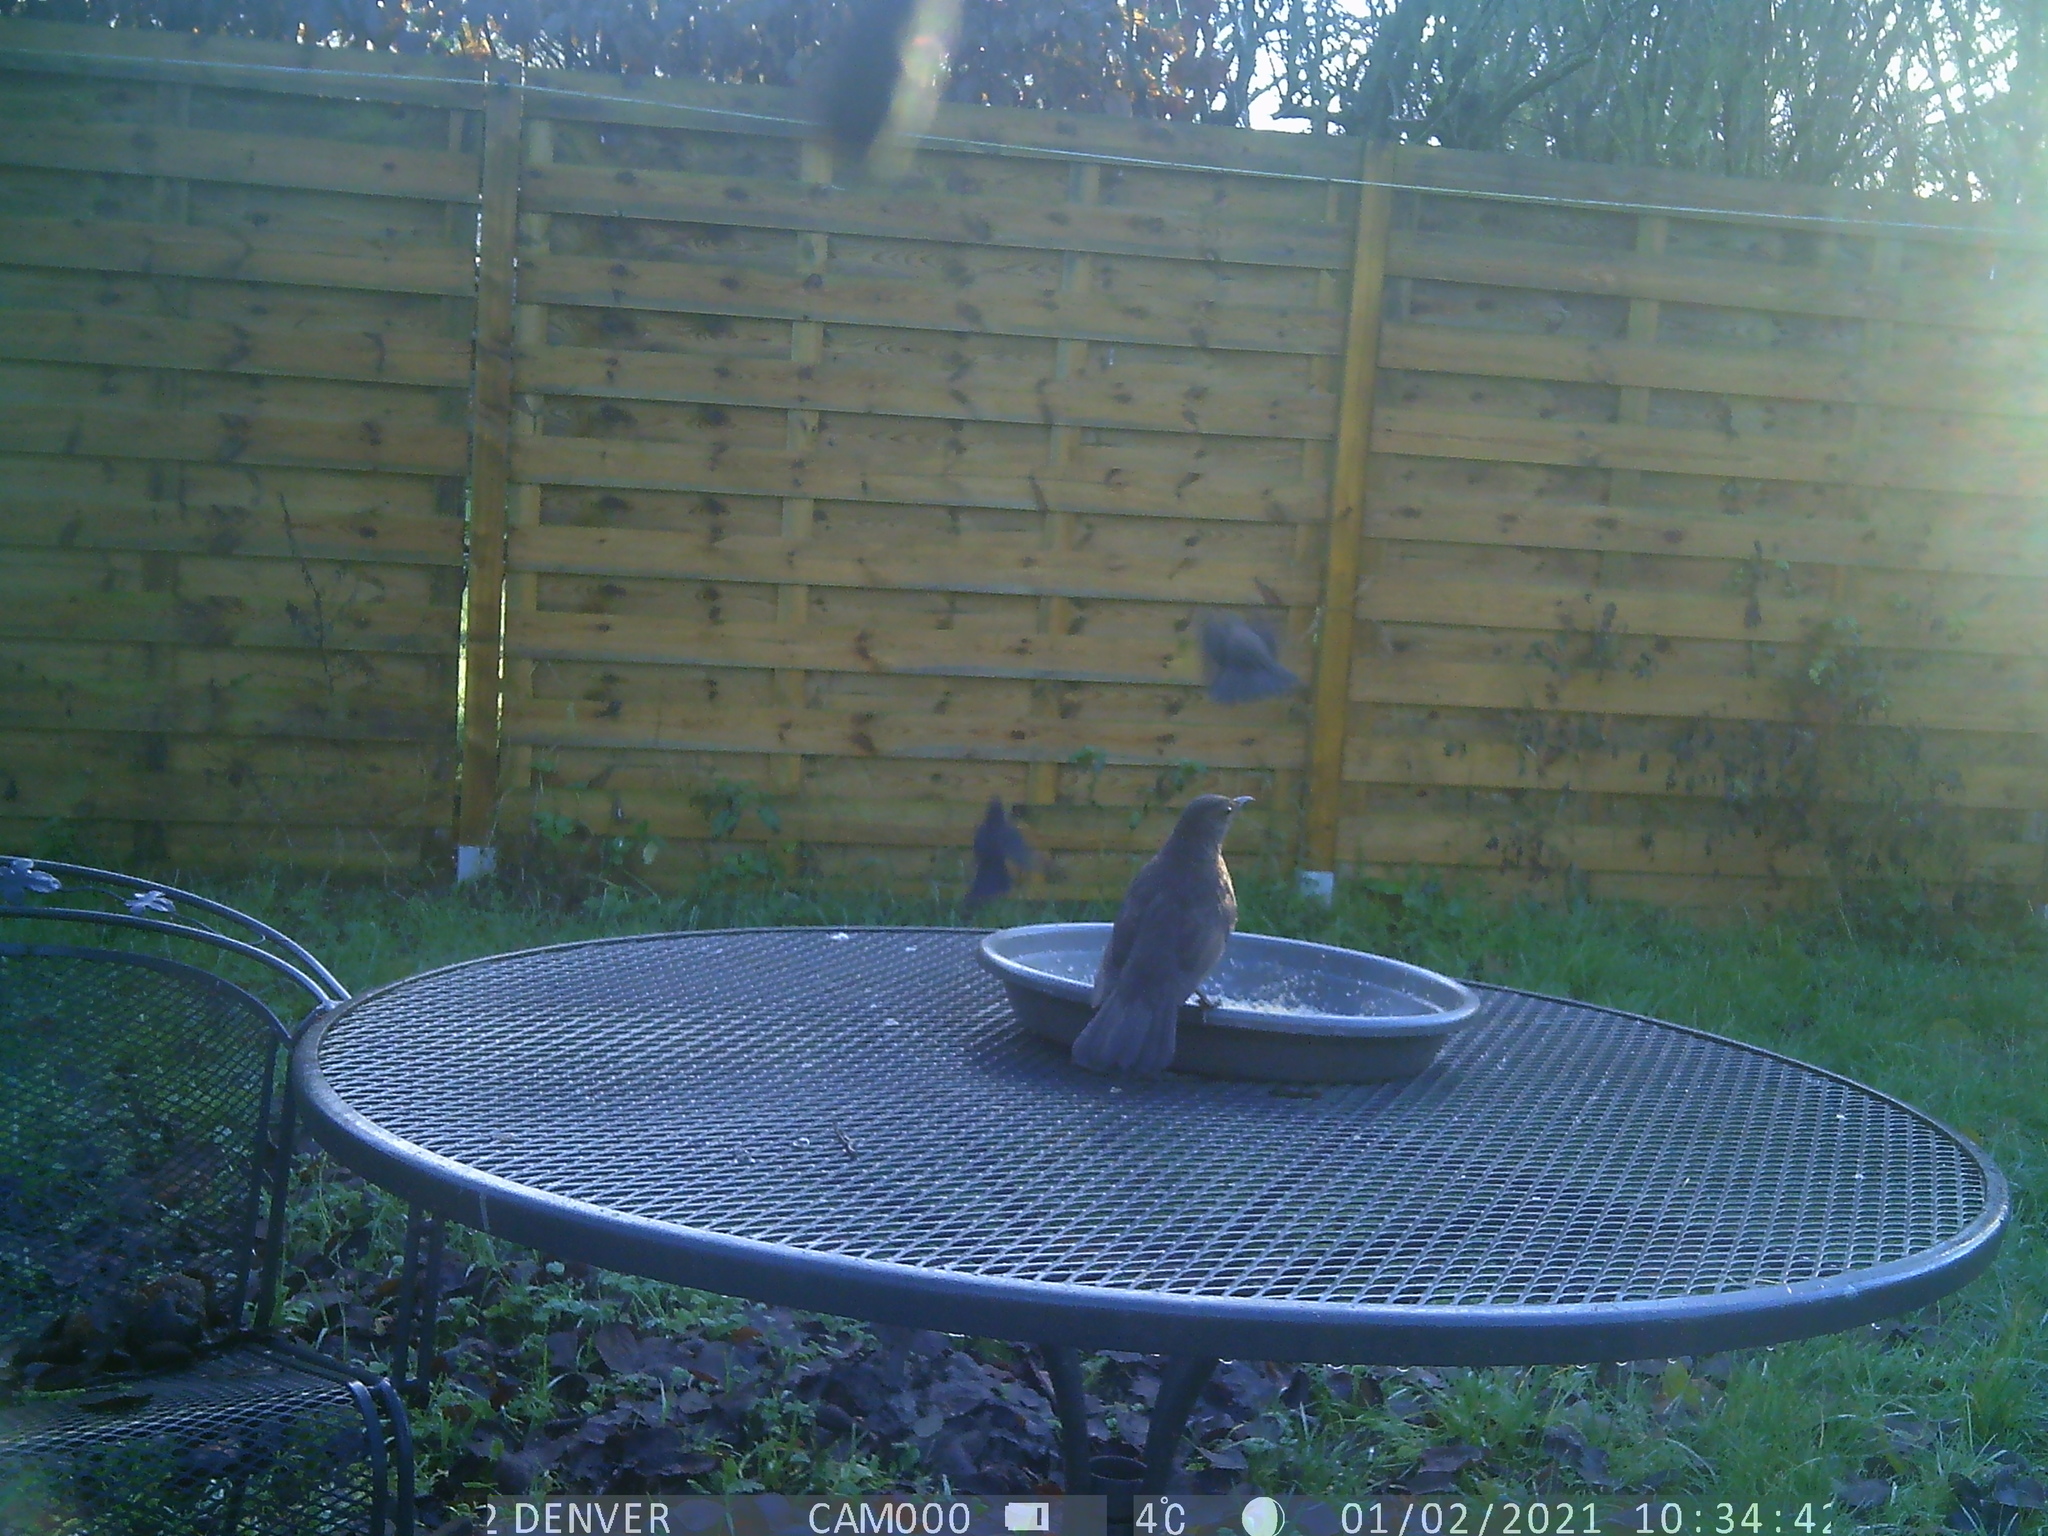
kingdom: Animalia
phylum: Chordata
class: Aves
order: Passeriformes
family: Turdidae
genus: Turdus
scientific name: Turdus merula
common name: Common blackbird
